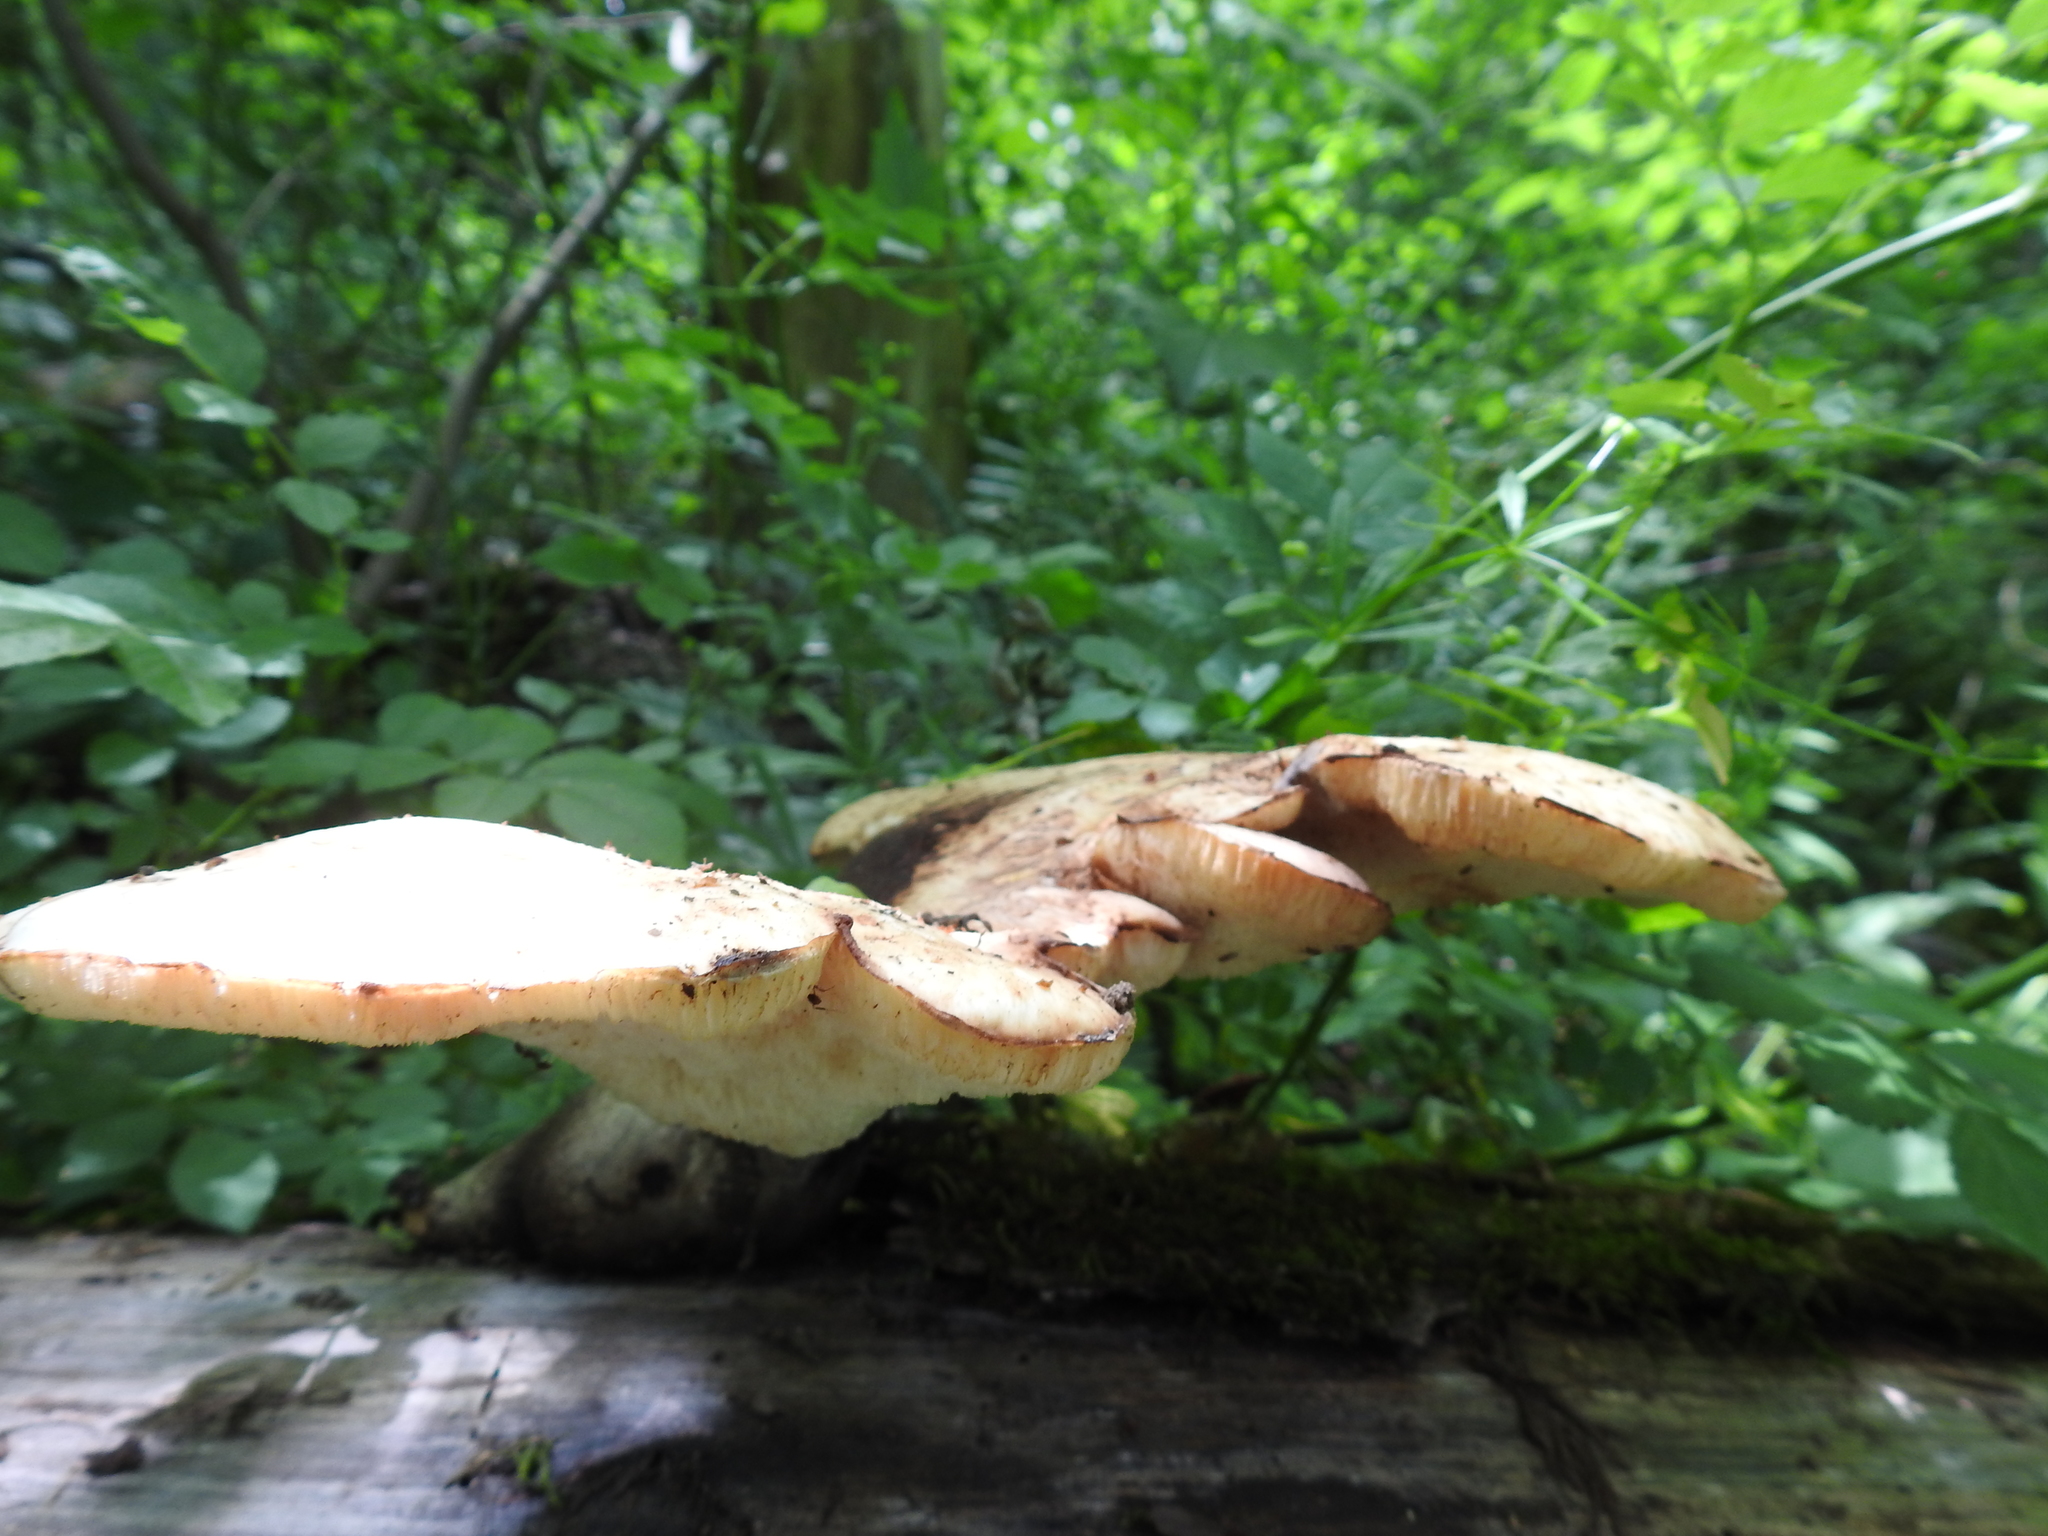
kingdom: Fungi
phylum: Basidiomycota
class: Agaricomycetes
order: Polyporales
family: Polyporaceae
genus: Cerioporus
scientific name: Cerioporus squamosus
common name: Dryad's saddle
